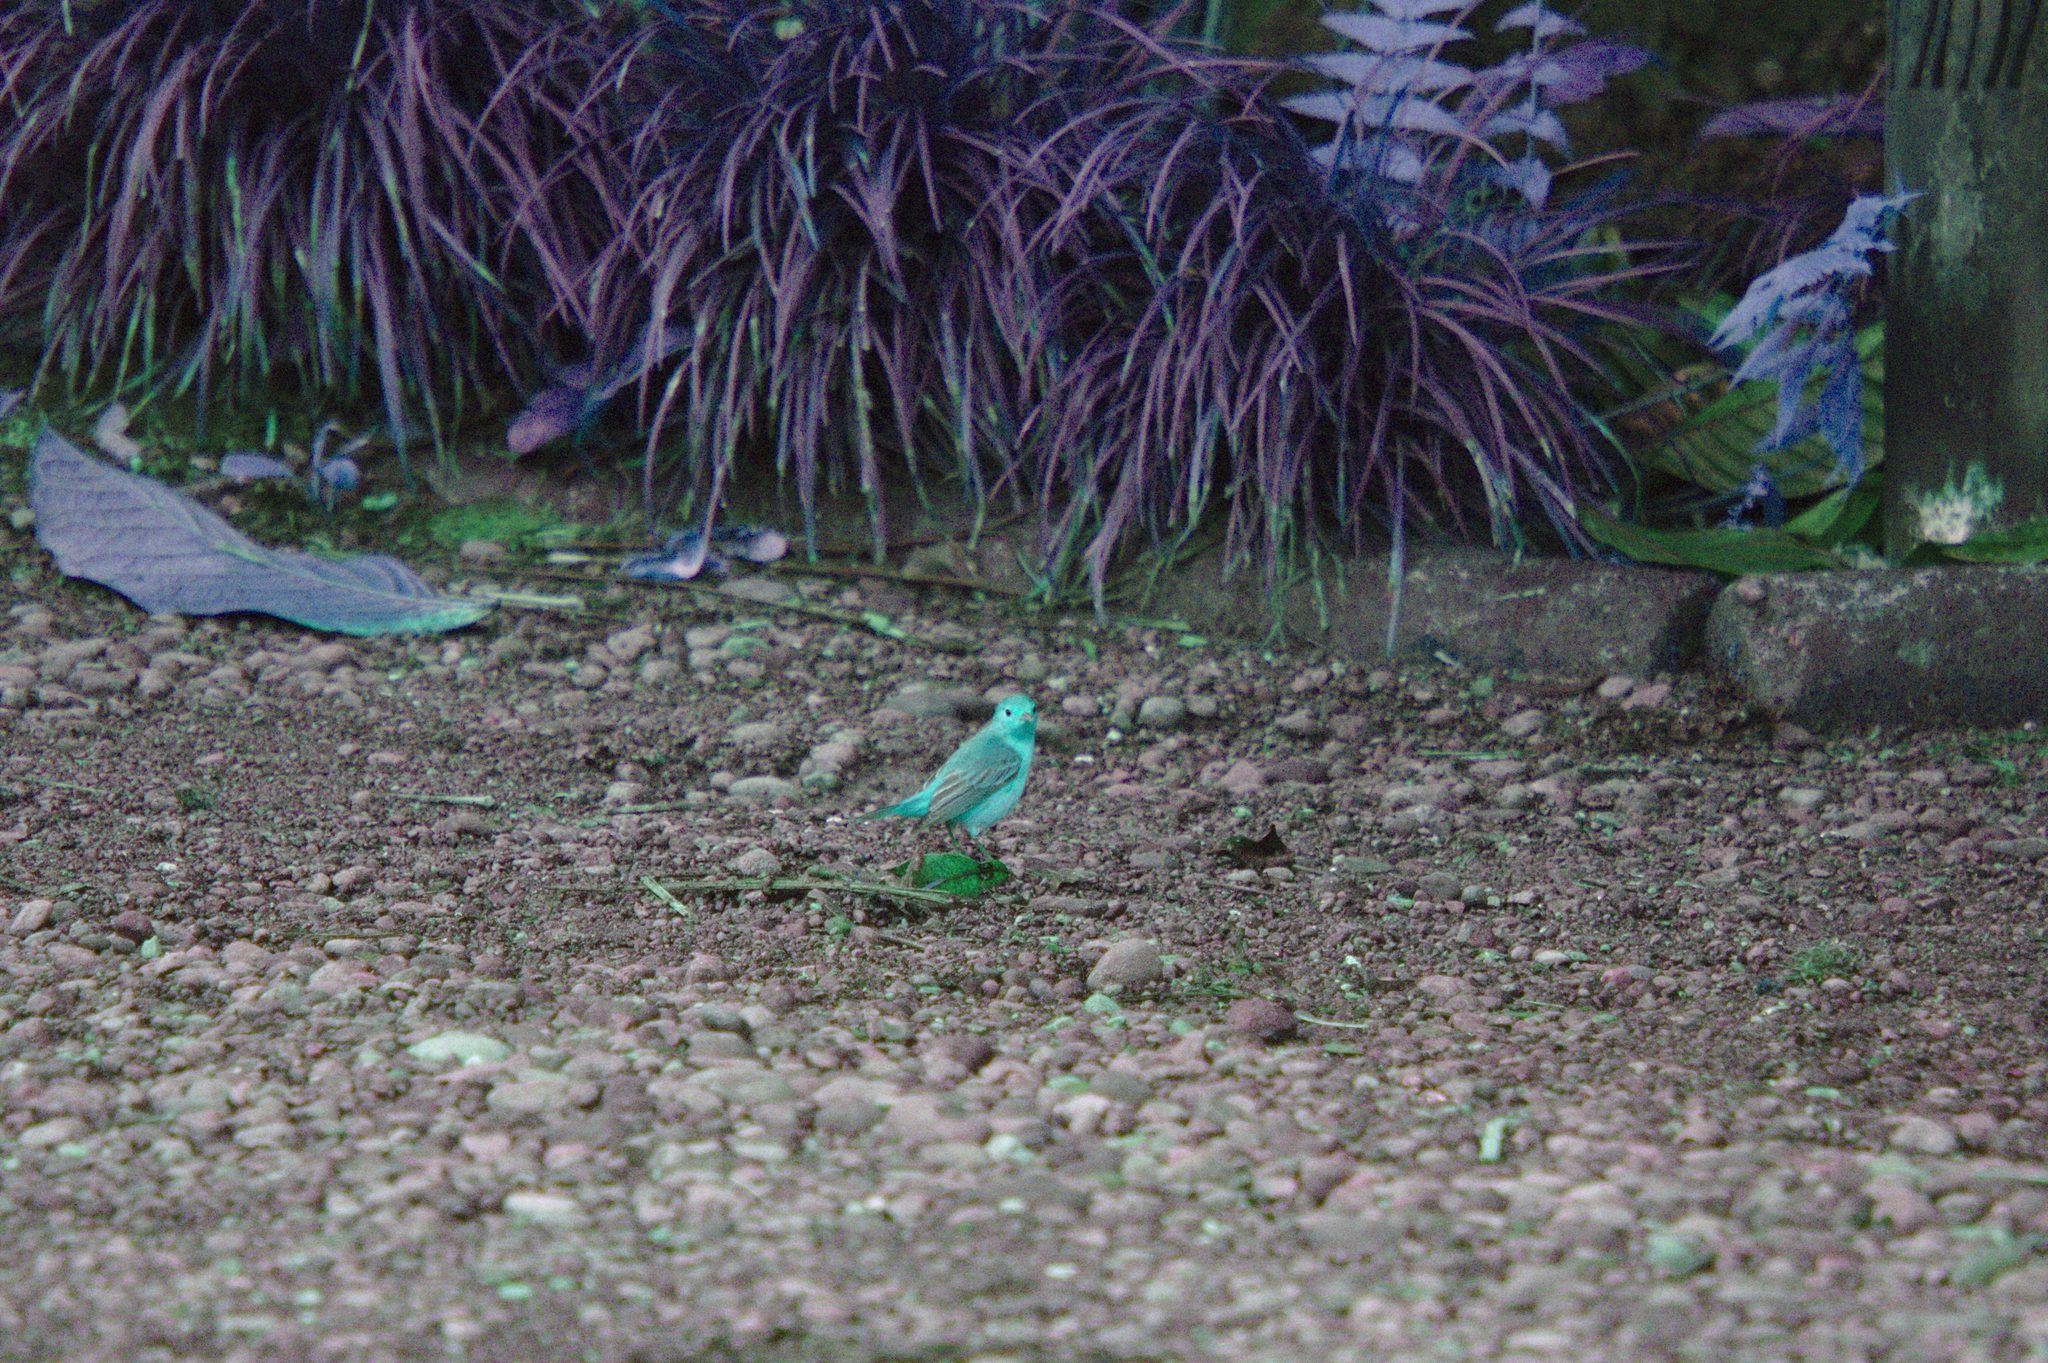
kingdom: Animalia
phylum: Chordata
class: Aves
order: Passeriformes
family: Parulidae
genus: Setophaga
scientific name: Setophaga petechia
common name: Yellow warbler
